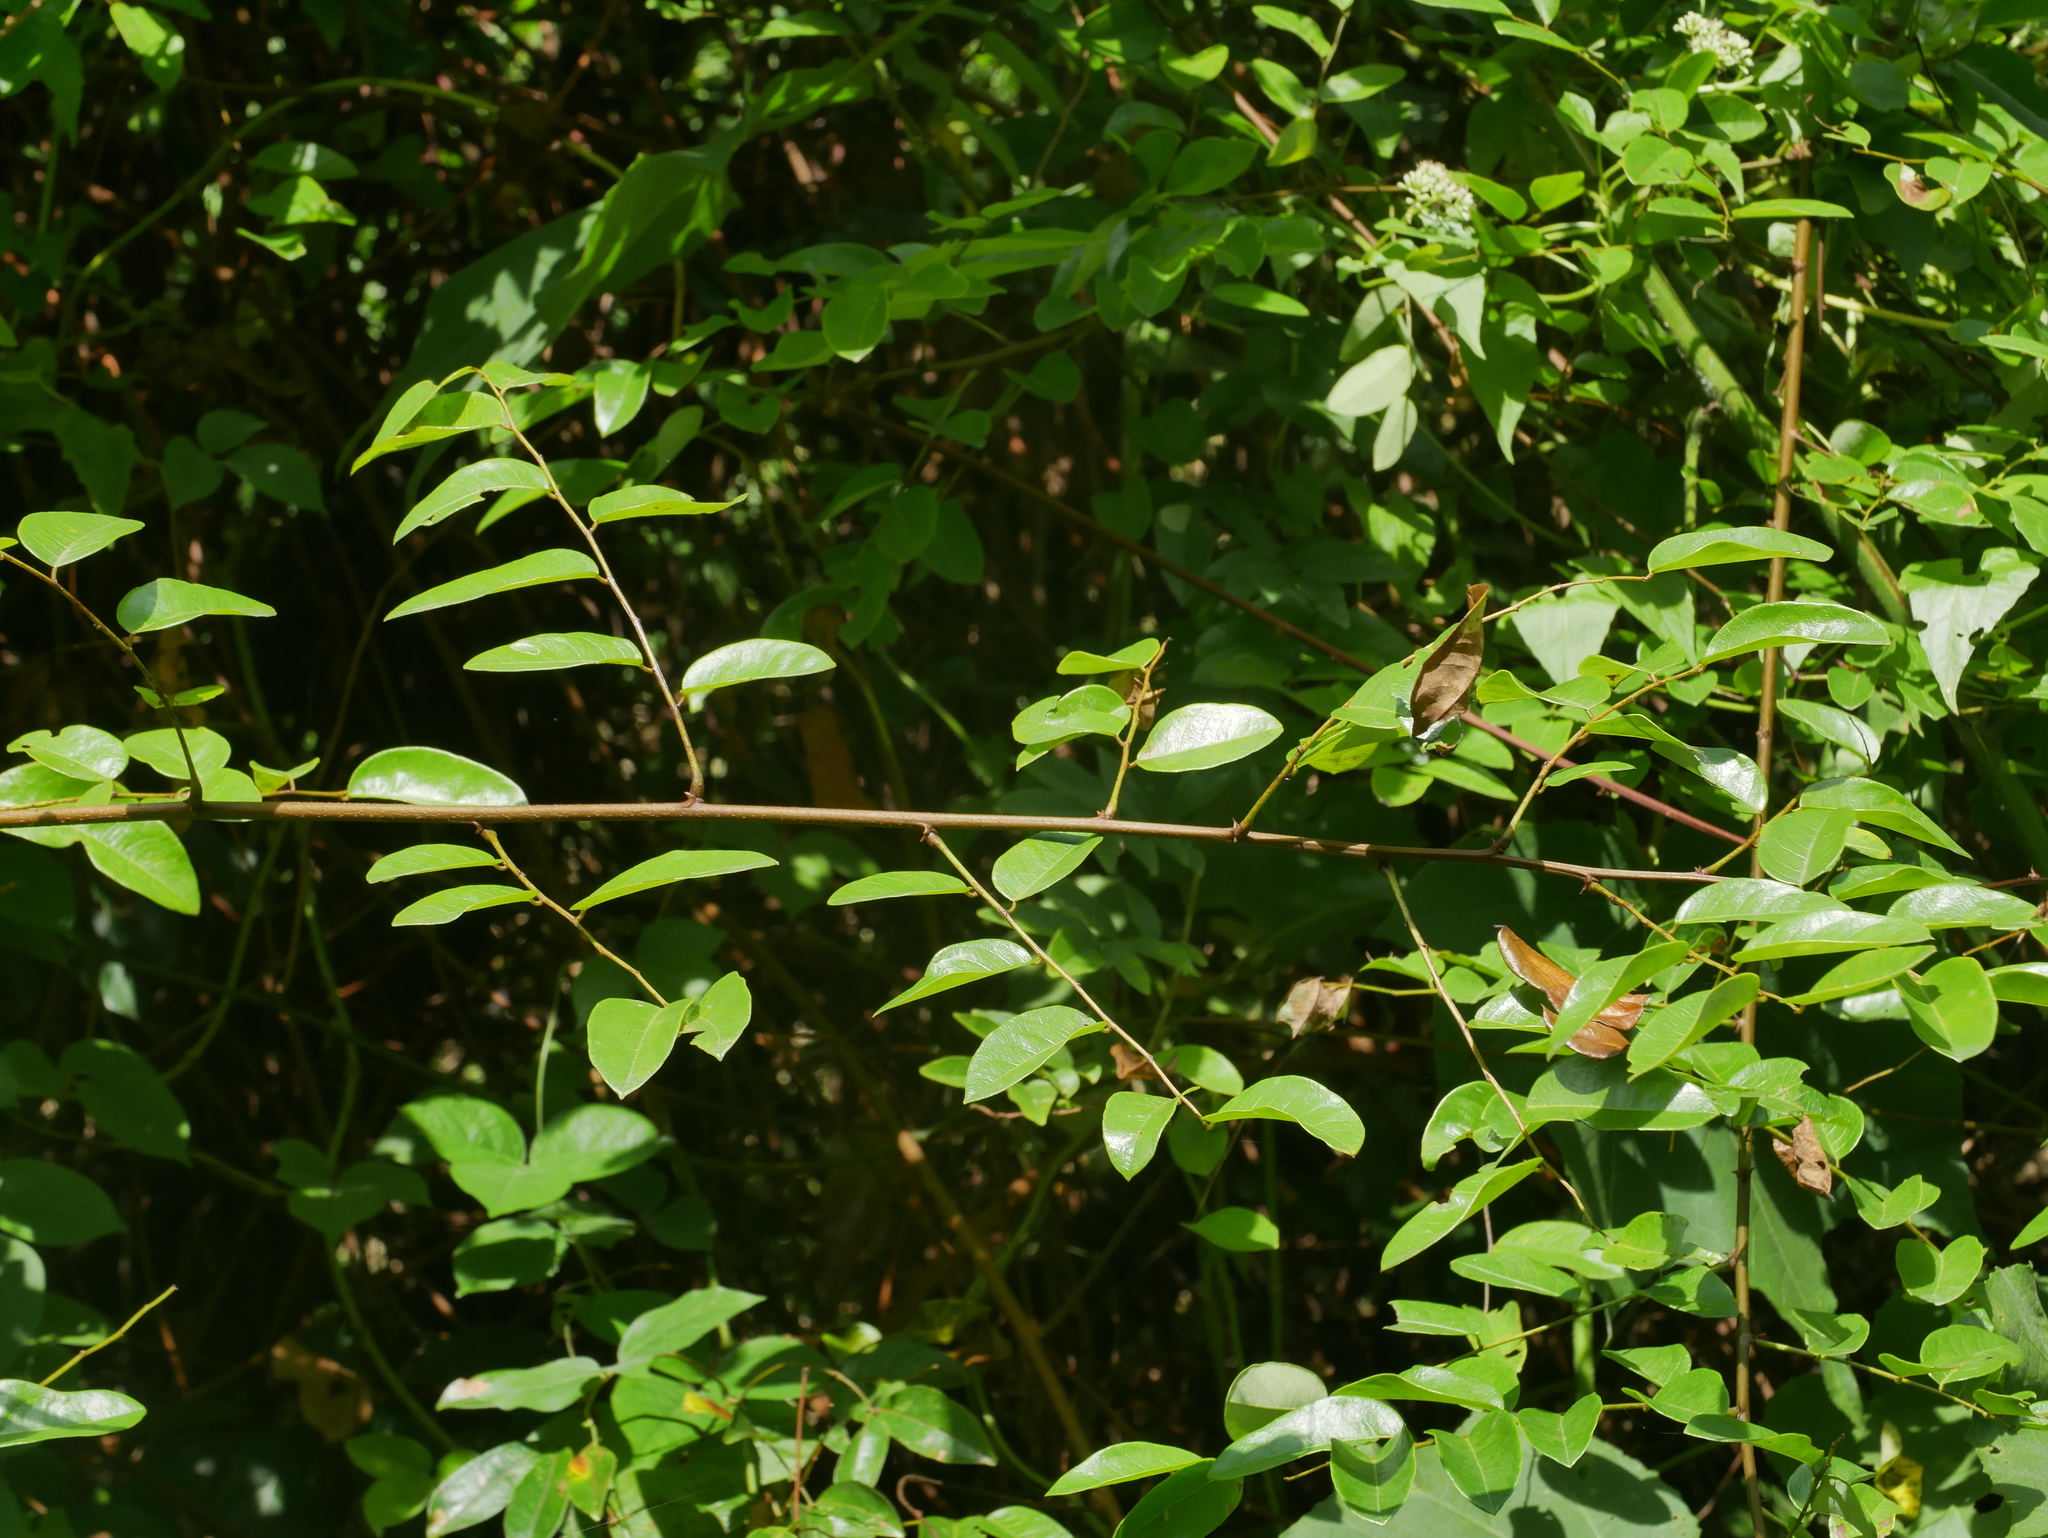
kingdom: Plantae
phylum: Tracheophyta
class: Magnoliopsida
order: Malpighiales
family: Phyllanthaceae
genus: Phyllanthus
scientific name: Phyllanthus reticulatus
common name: Potato bush
